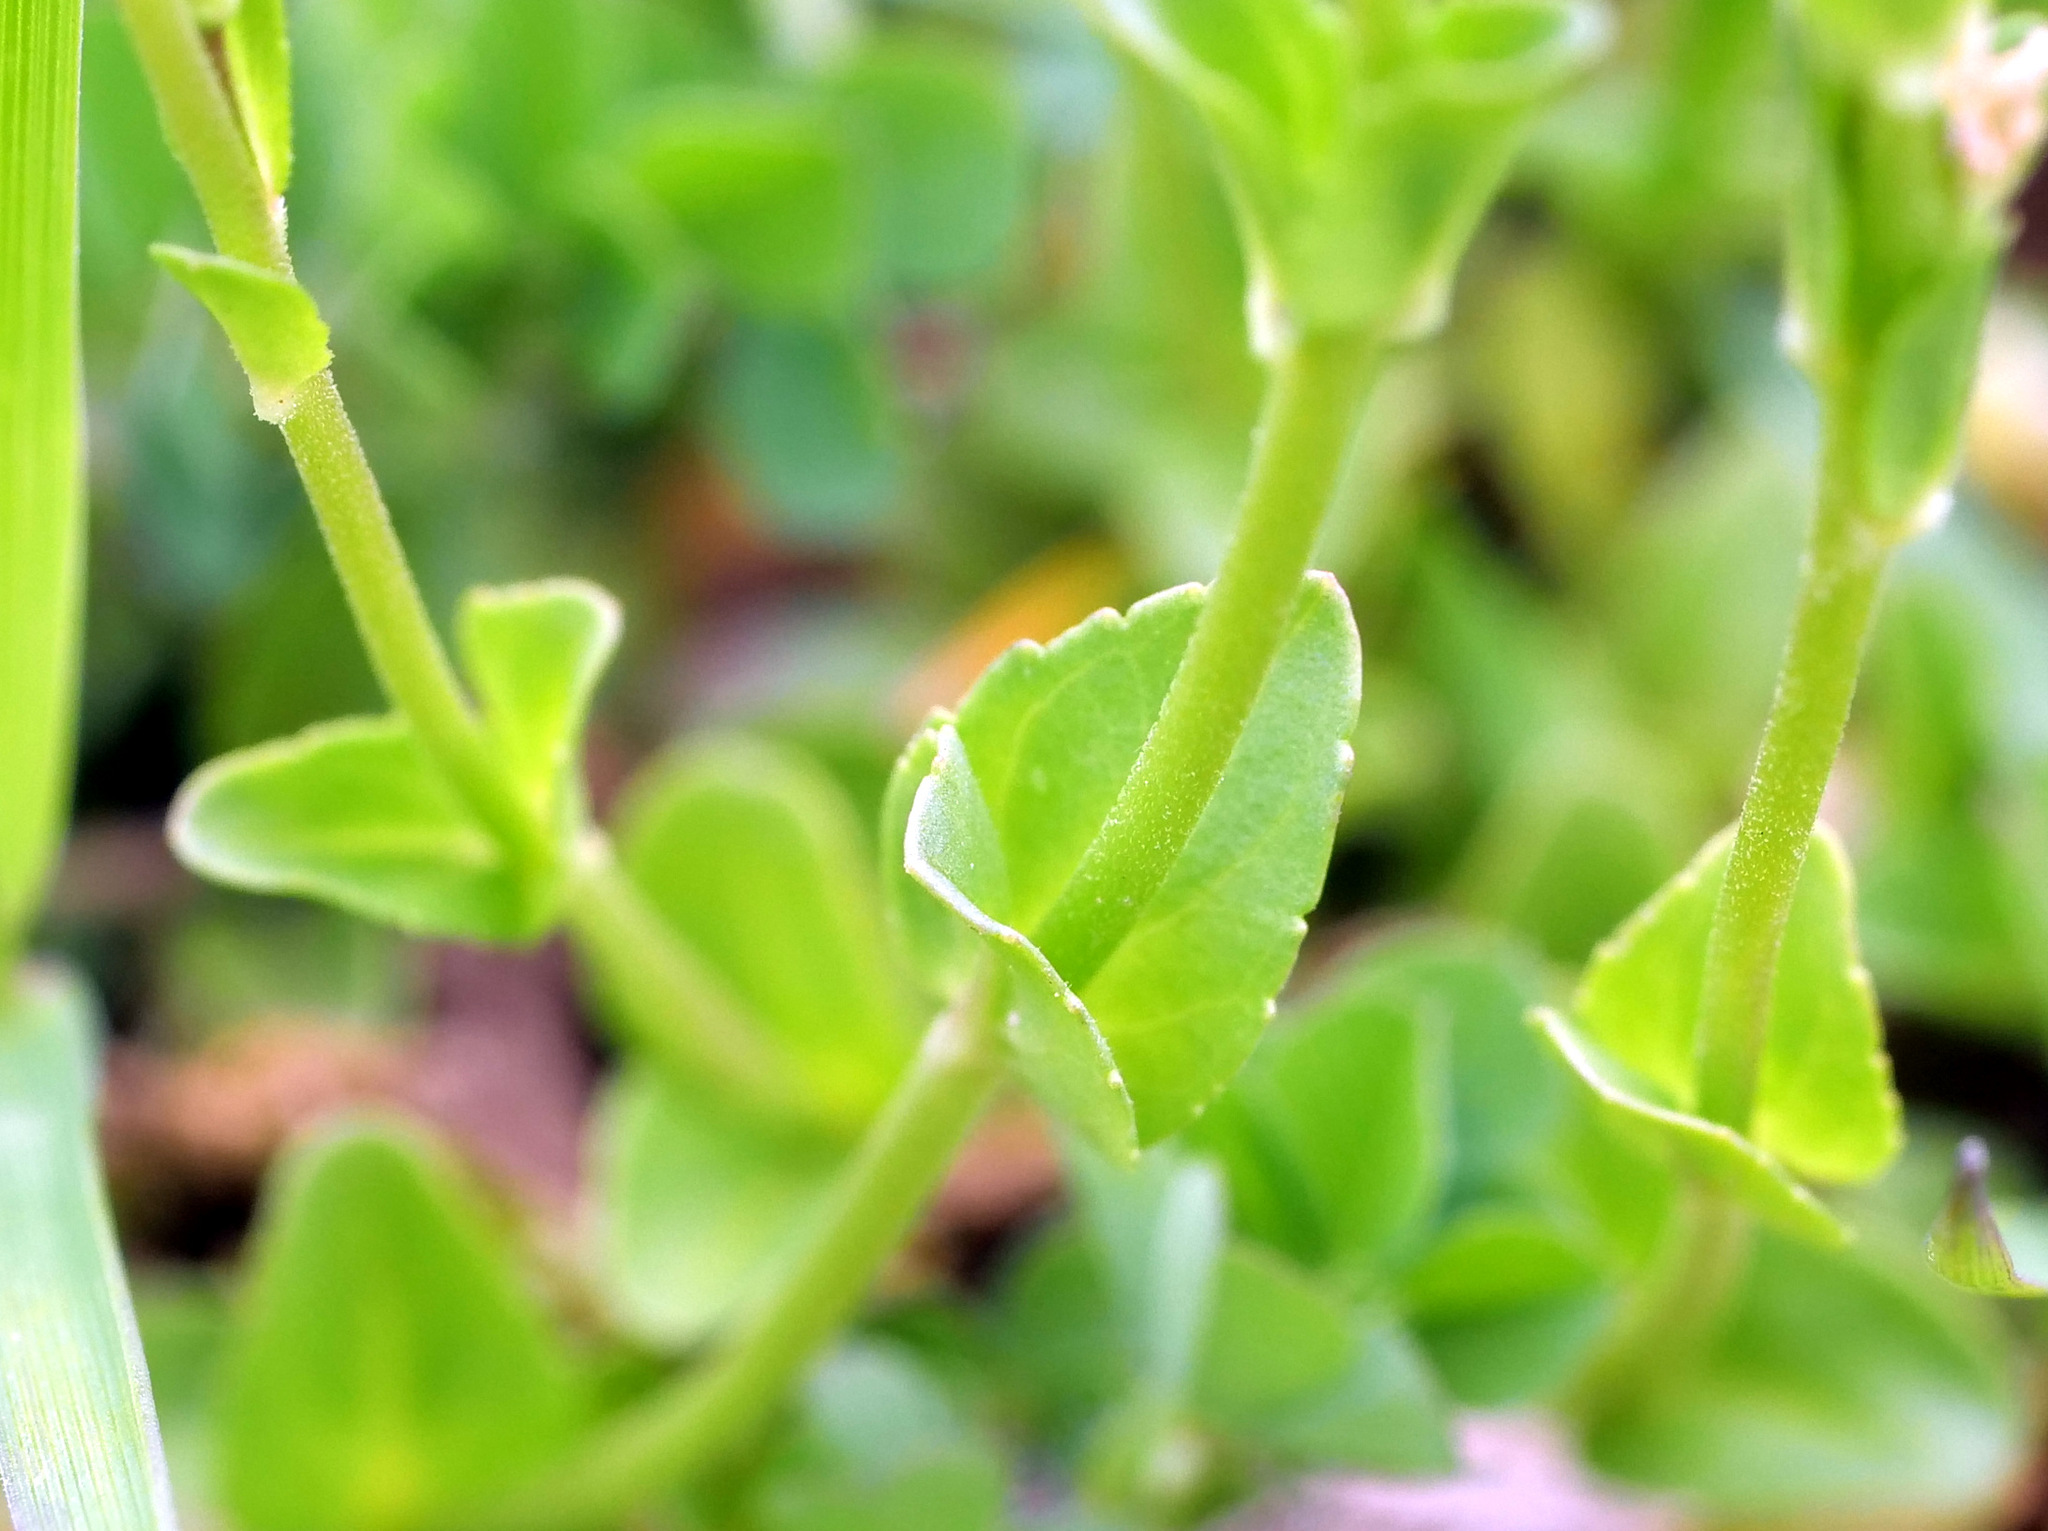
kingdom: Plantae
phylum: Tracheophyta
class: Magnoliopsida
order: Lamiales
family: Plantaginaceae
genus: Veronica
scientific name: Veronica serpyllifolia
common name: Thyme-leaved speedwell
